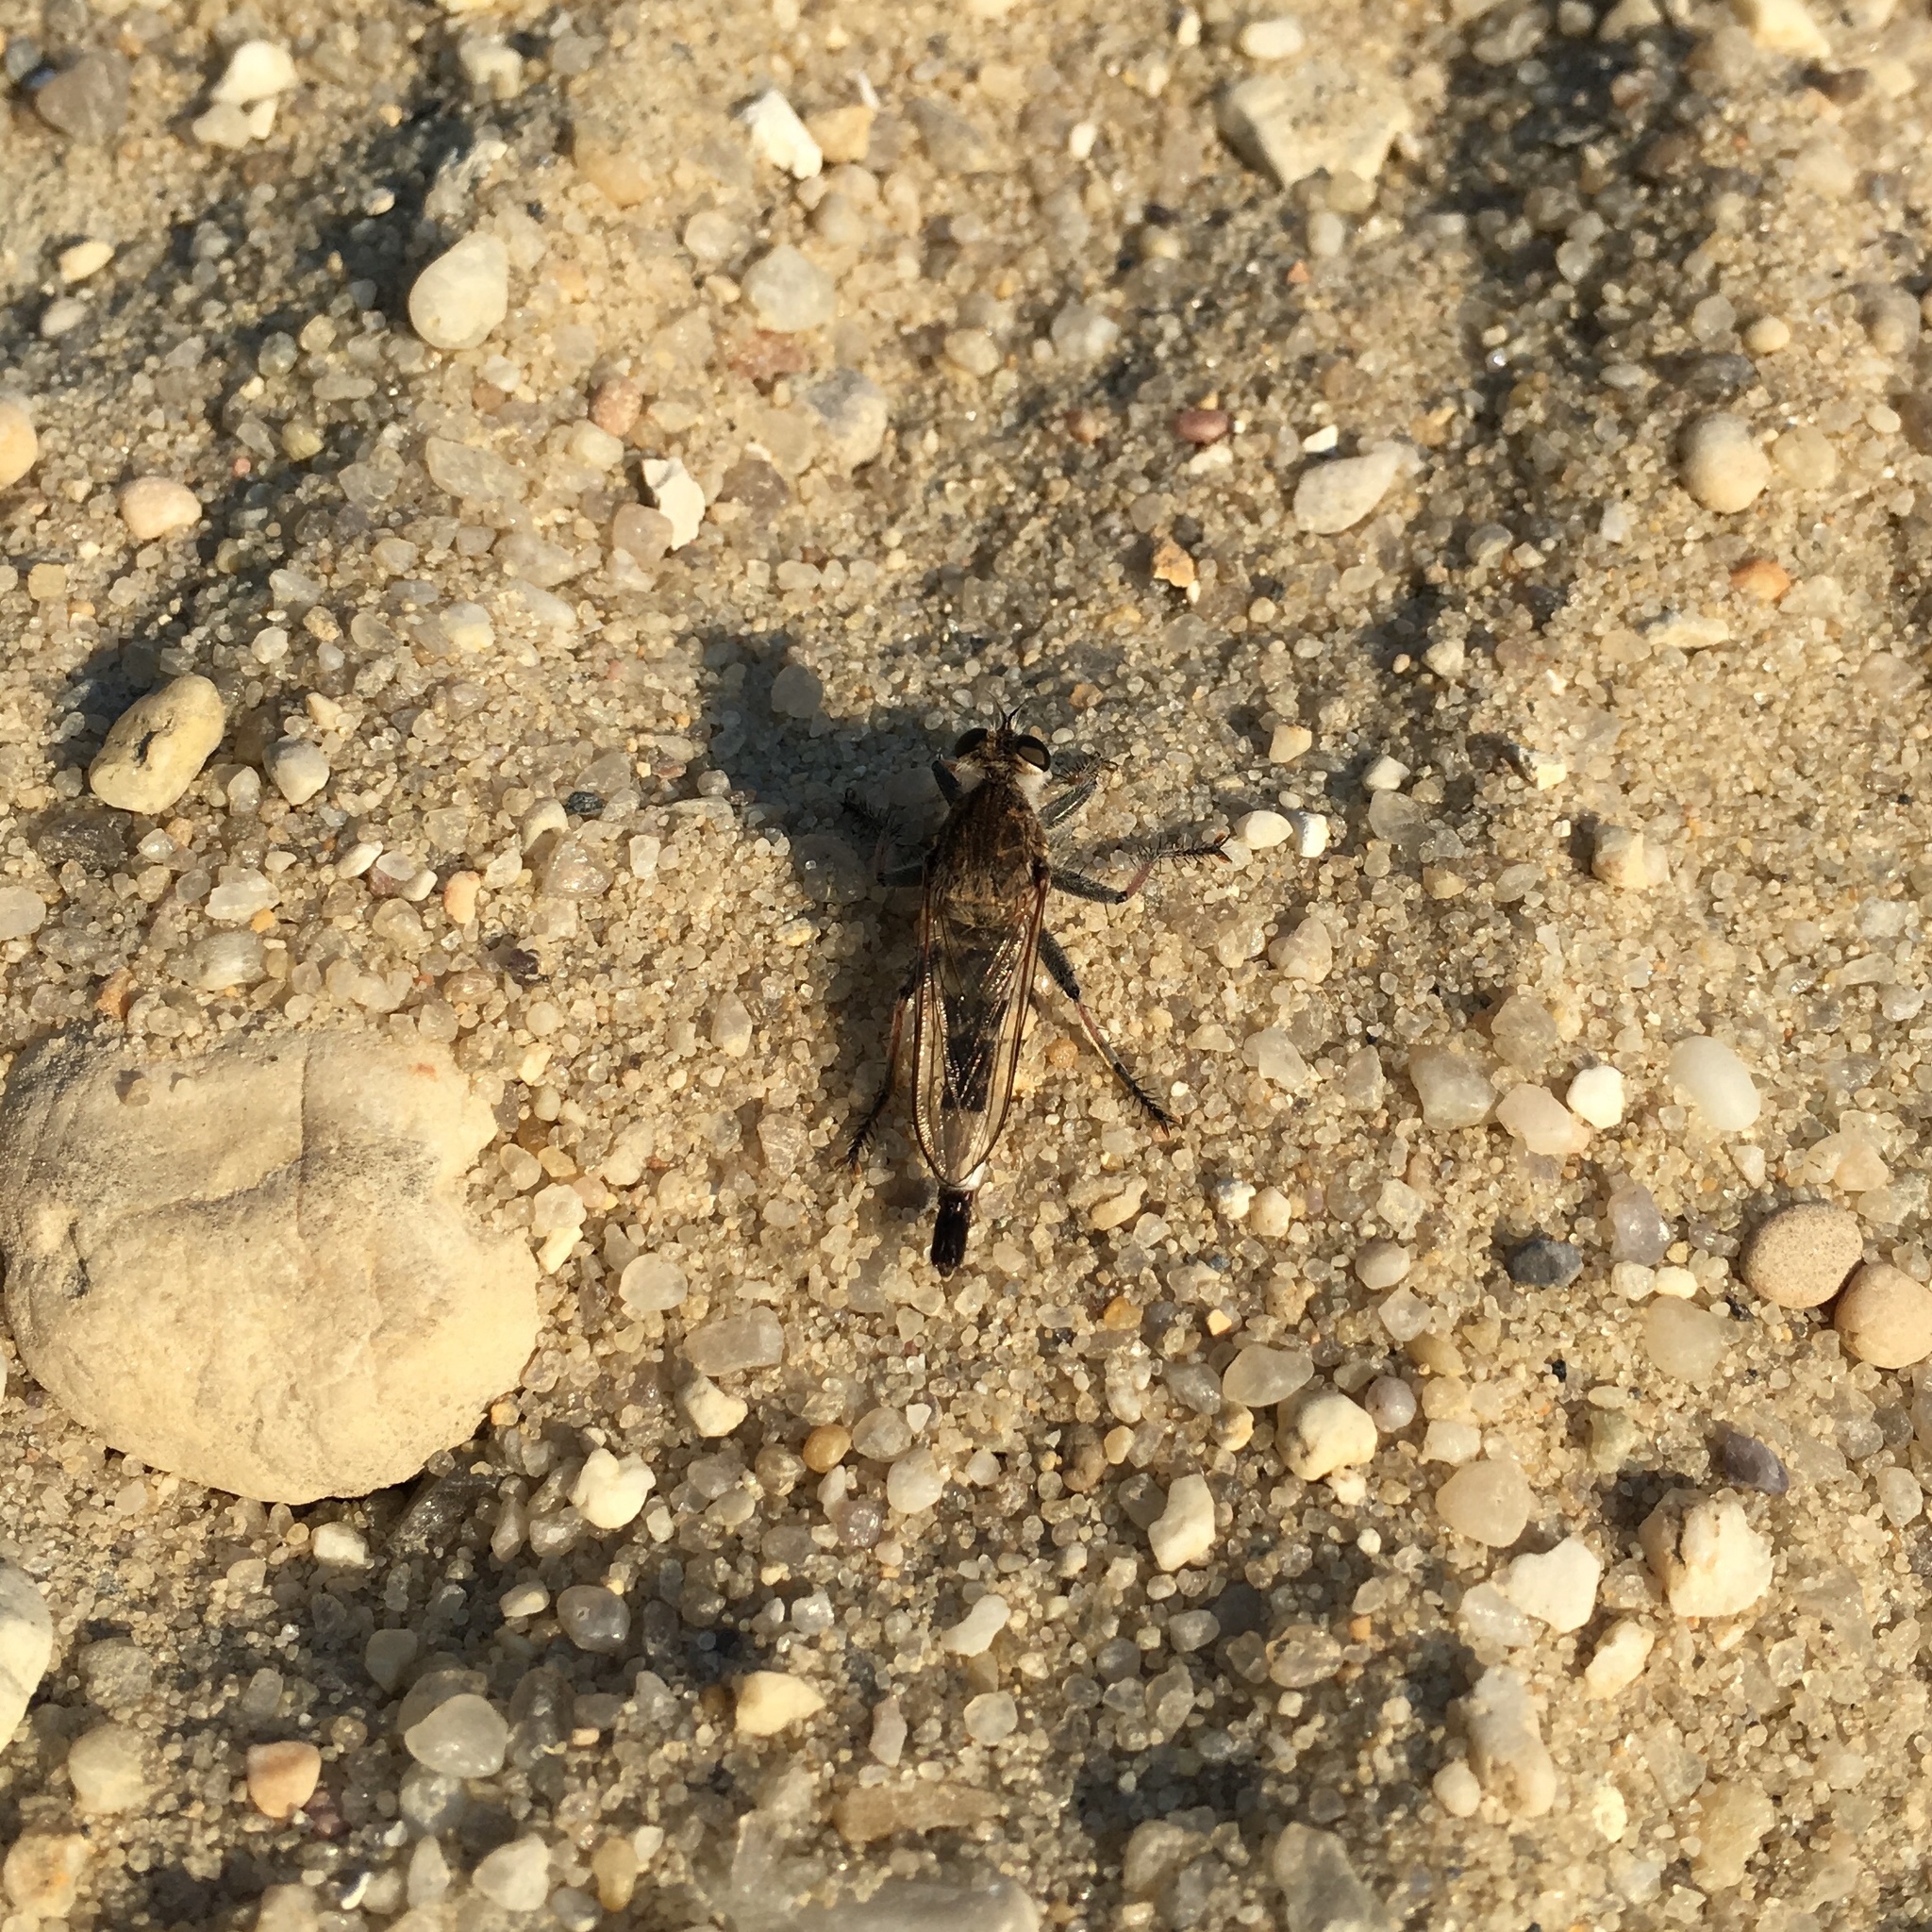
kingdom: Animalia
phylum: Arthropoda
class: Insecta
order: Diptera
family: Asilidae
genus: Efferia
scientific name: Efferia albibarbis
